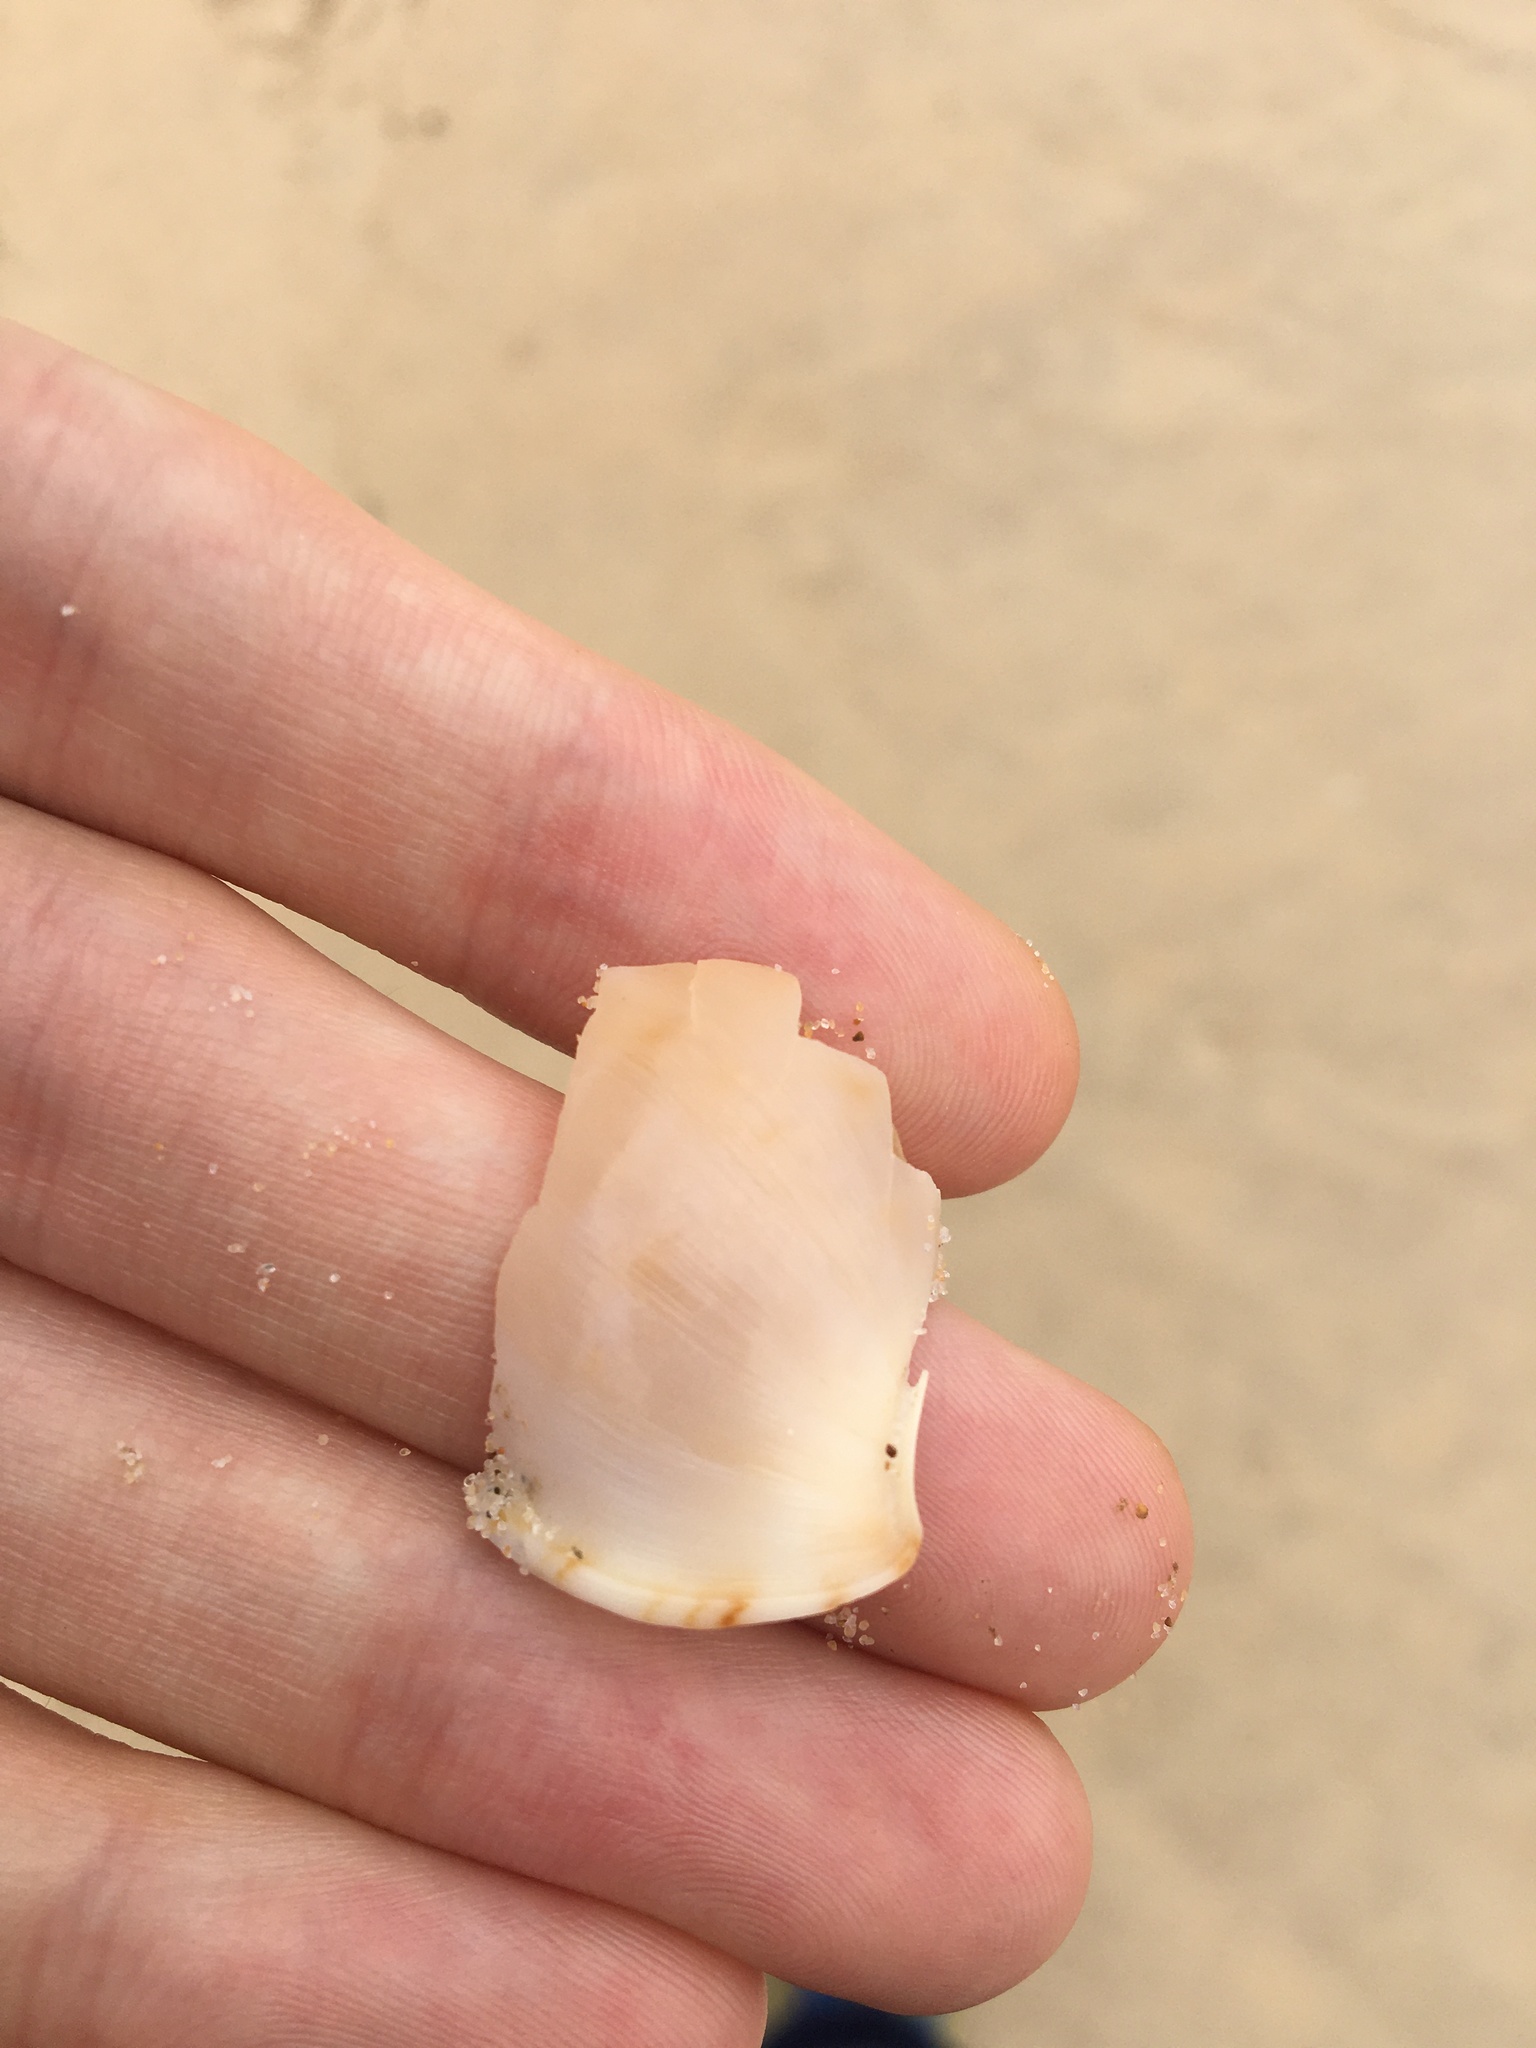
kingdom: Animalia
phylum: Mollusca
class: Gastropoda
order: Littorinimorpha
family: Cassidae
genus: Semicassis
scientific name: Semicassis labiata
